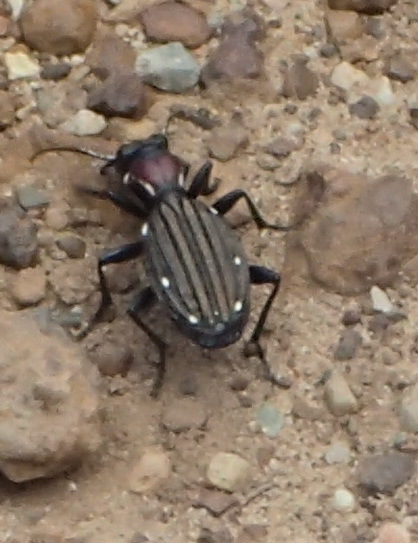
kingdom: Animalia
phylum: Arthropoda
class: Insecta
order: Coleoptera
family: Carabidae
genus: Anthia
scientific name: Anthia decemguttata
